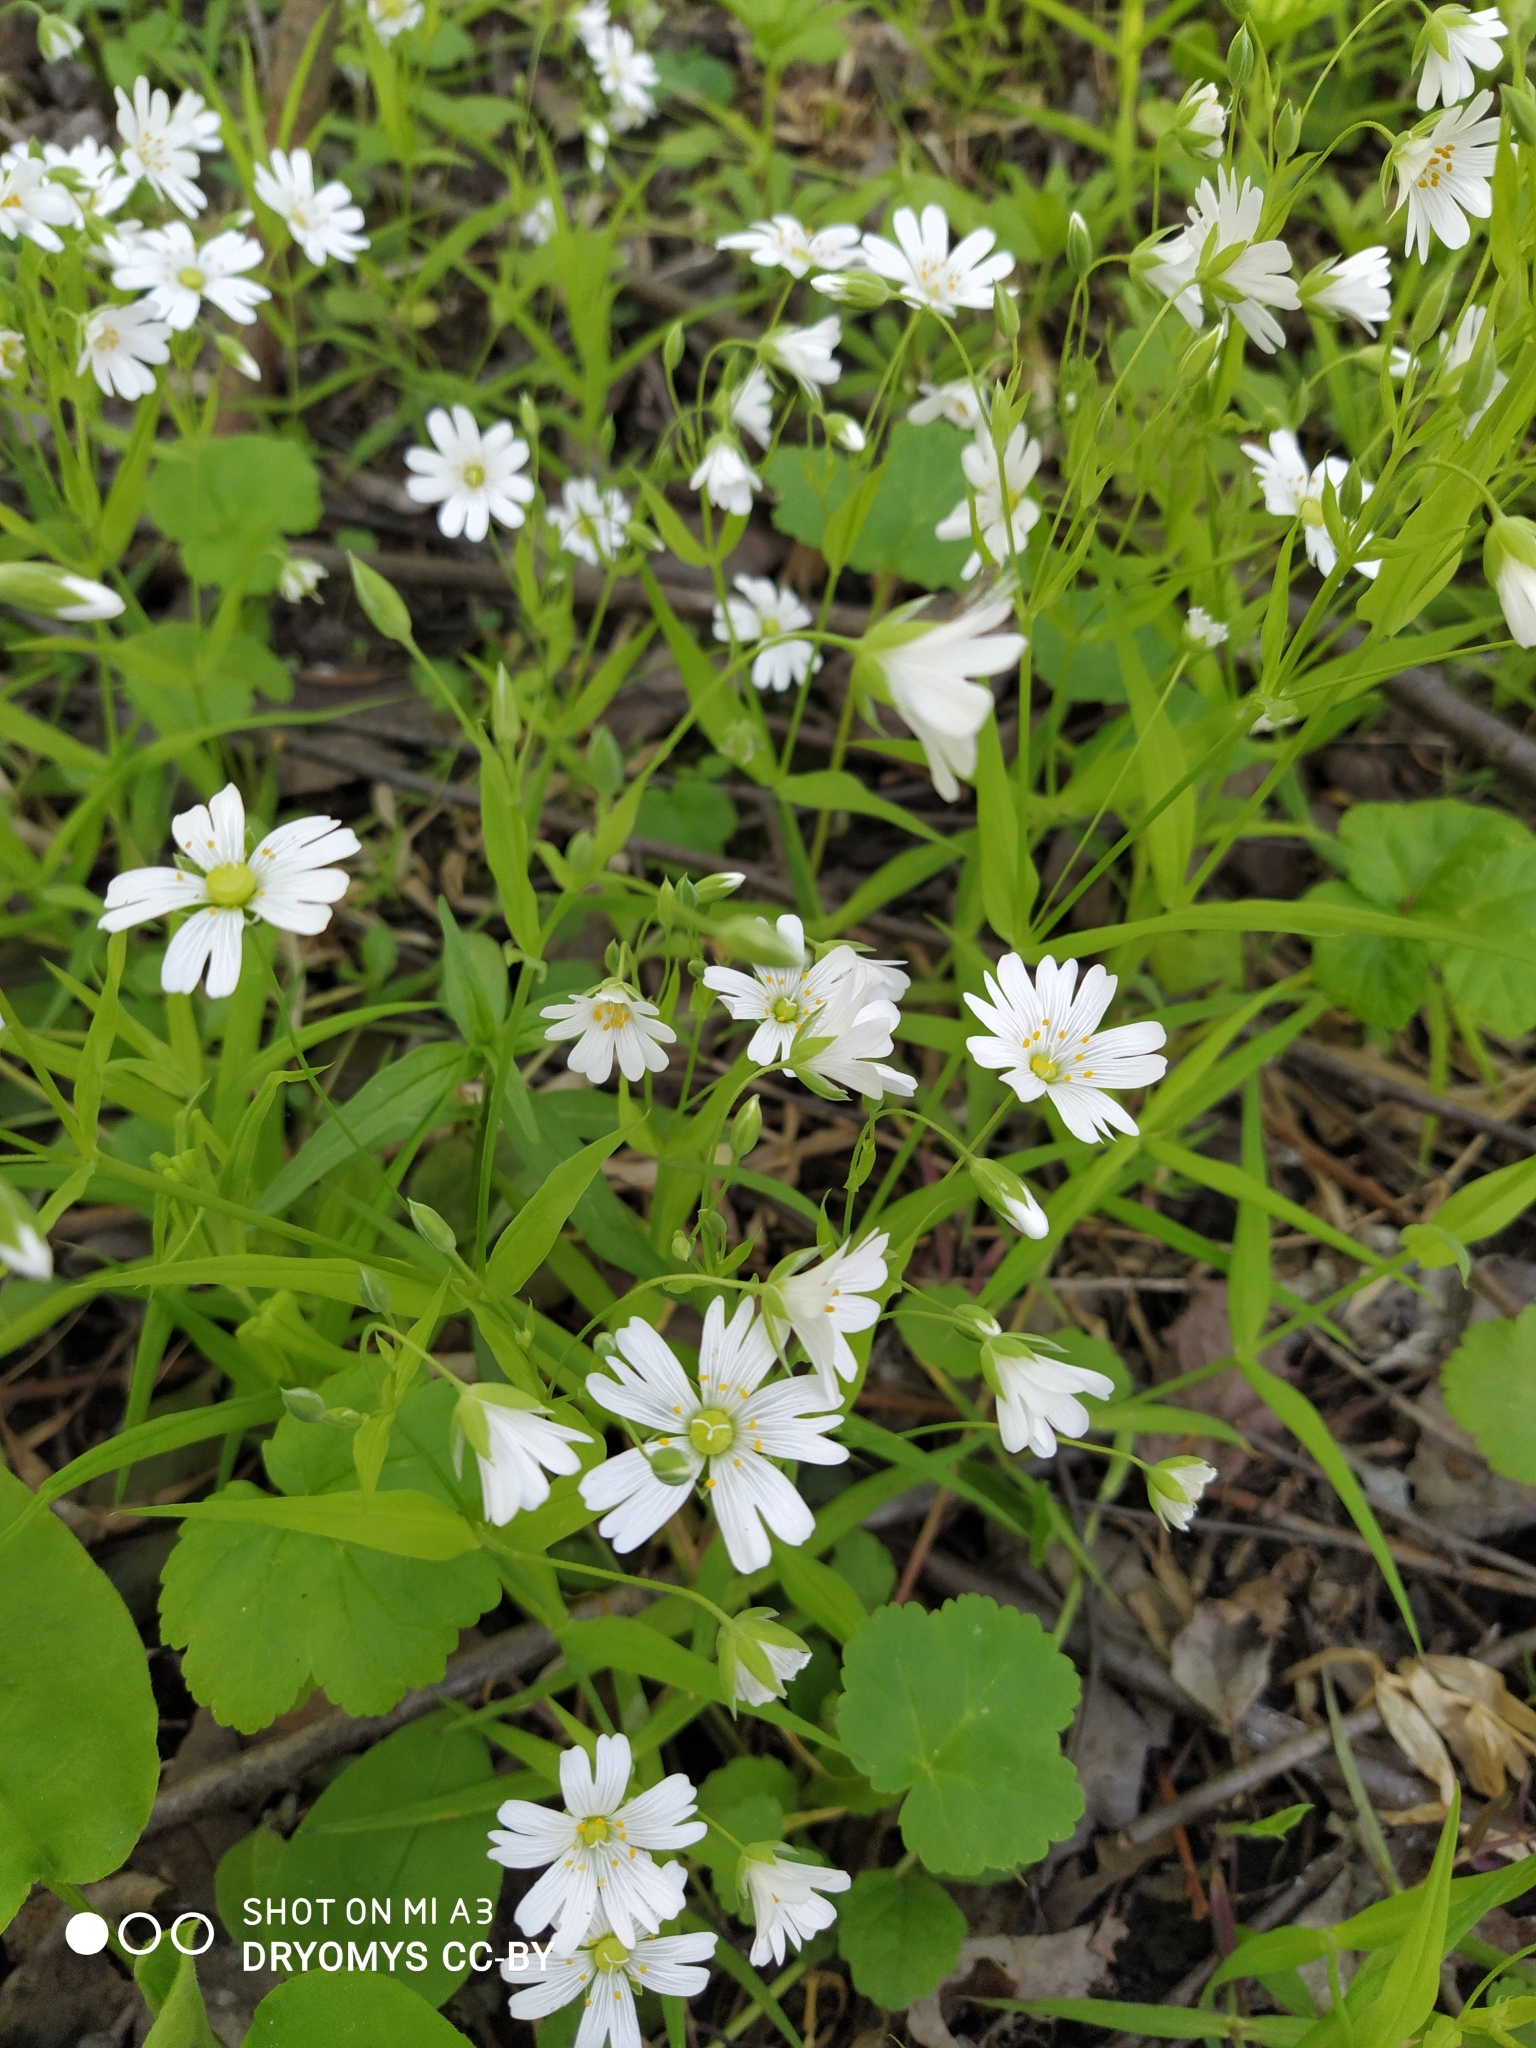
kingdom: Plantae
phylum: Tracheophyta
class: Magnoliopsida
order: Caryophyllales
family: Caryophyllaceae
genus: Rabelera
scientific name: Rabelera holostea
